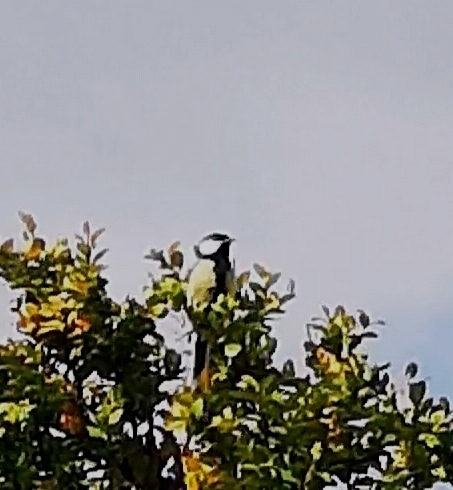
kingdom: Animalia
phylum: Chordata
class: Aves
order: Passeriformes
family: Paridae
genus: Parus
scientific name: Parus major
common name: Great tit
